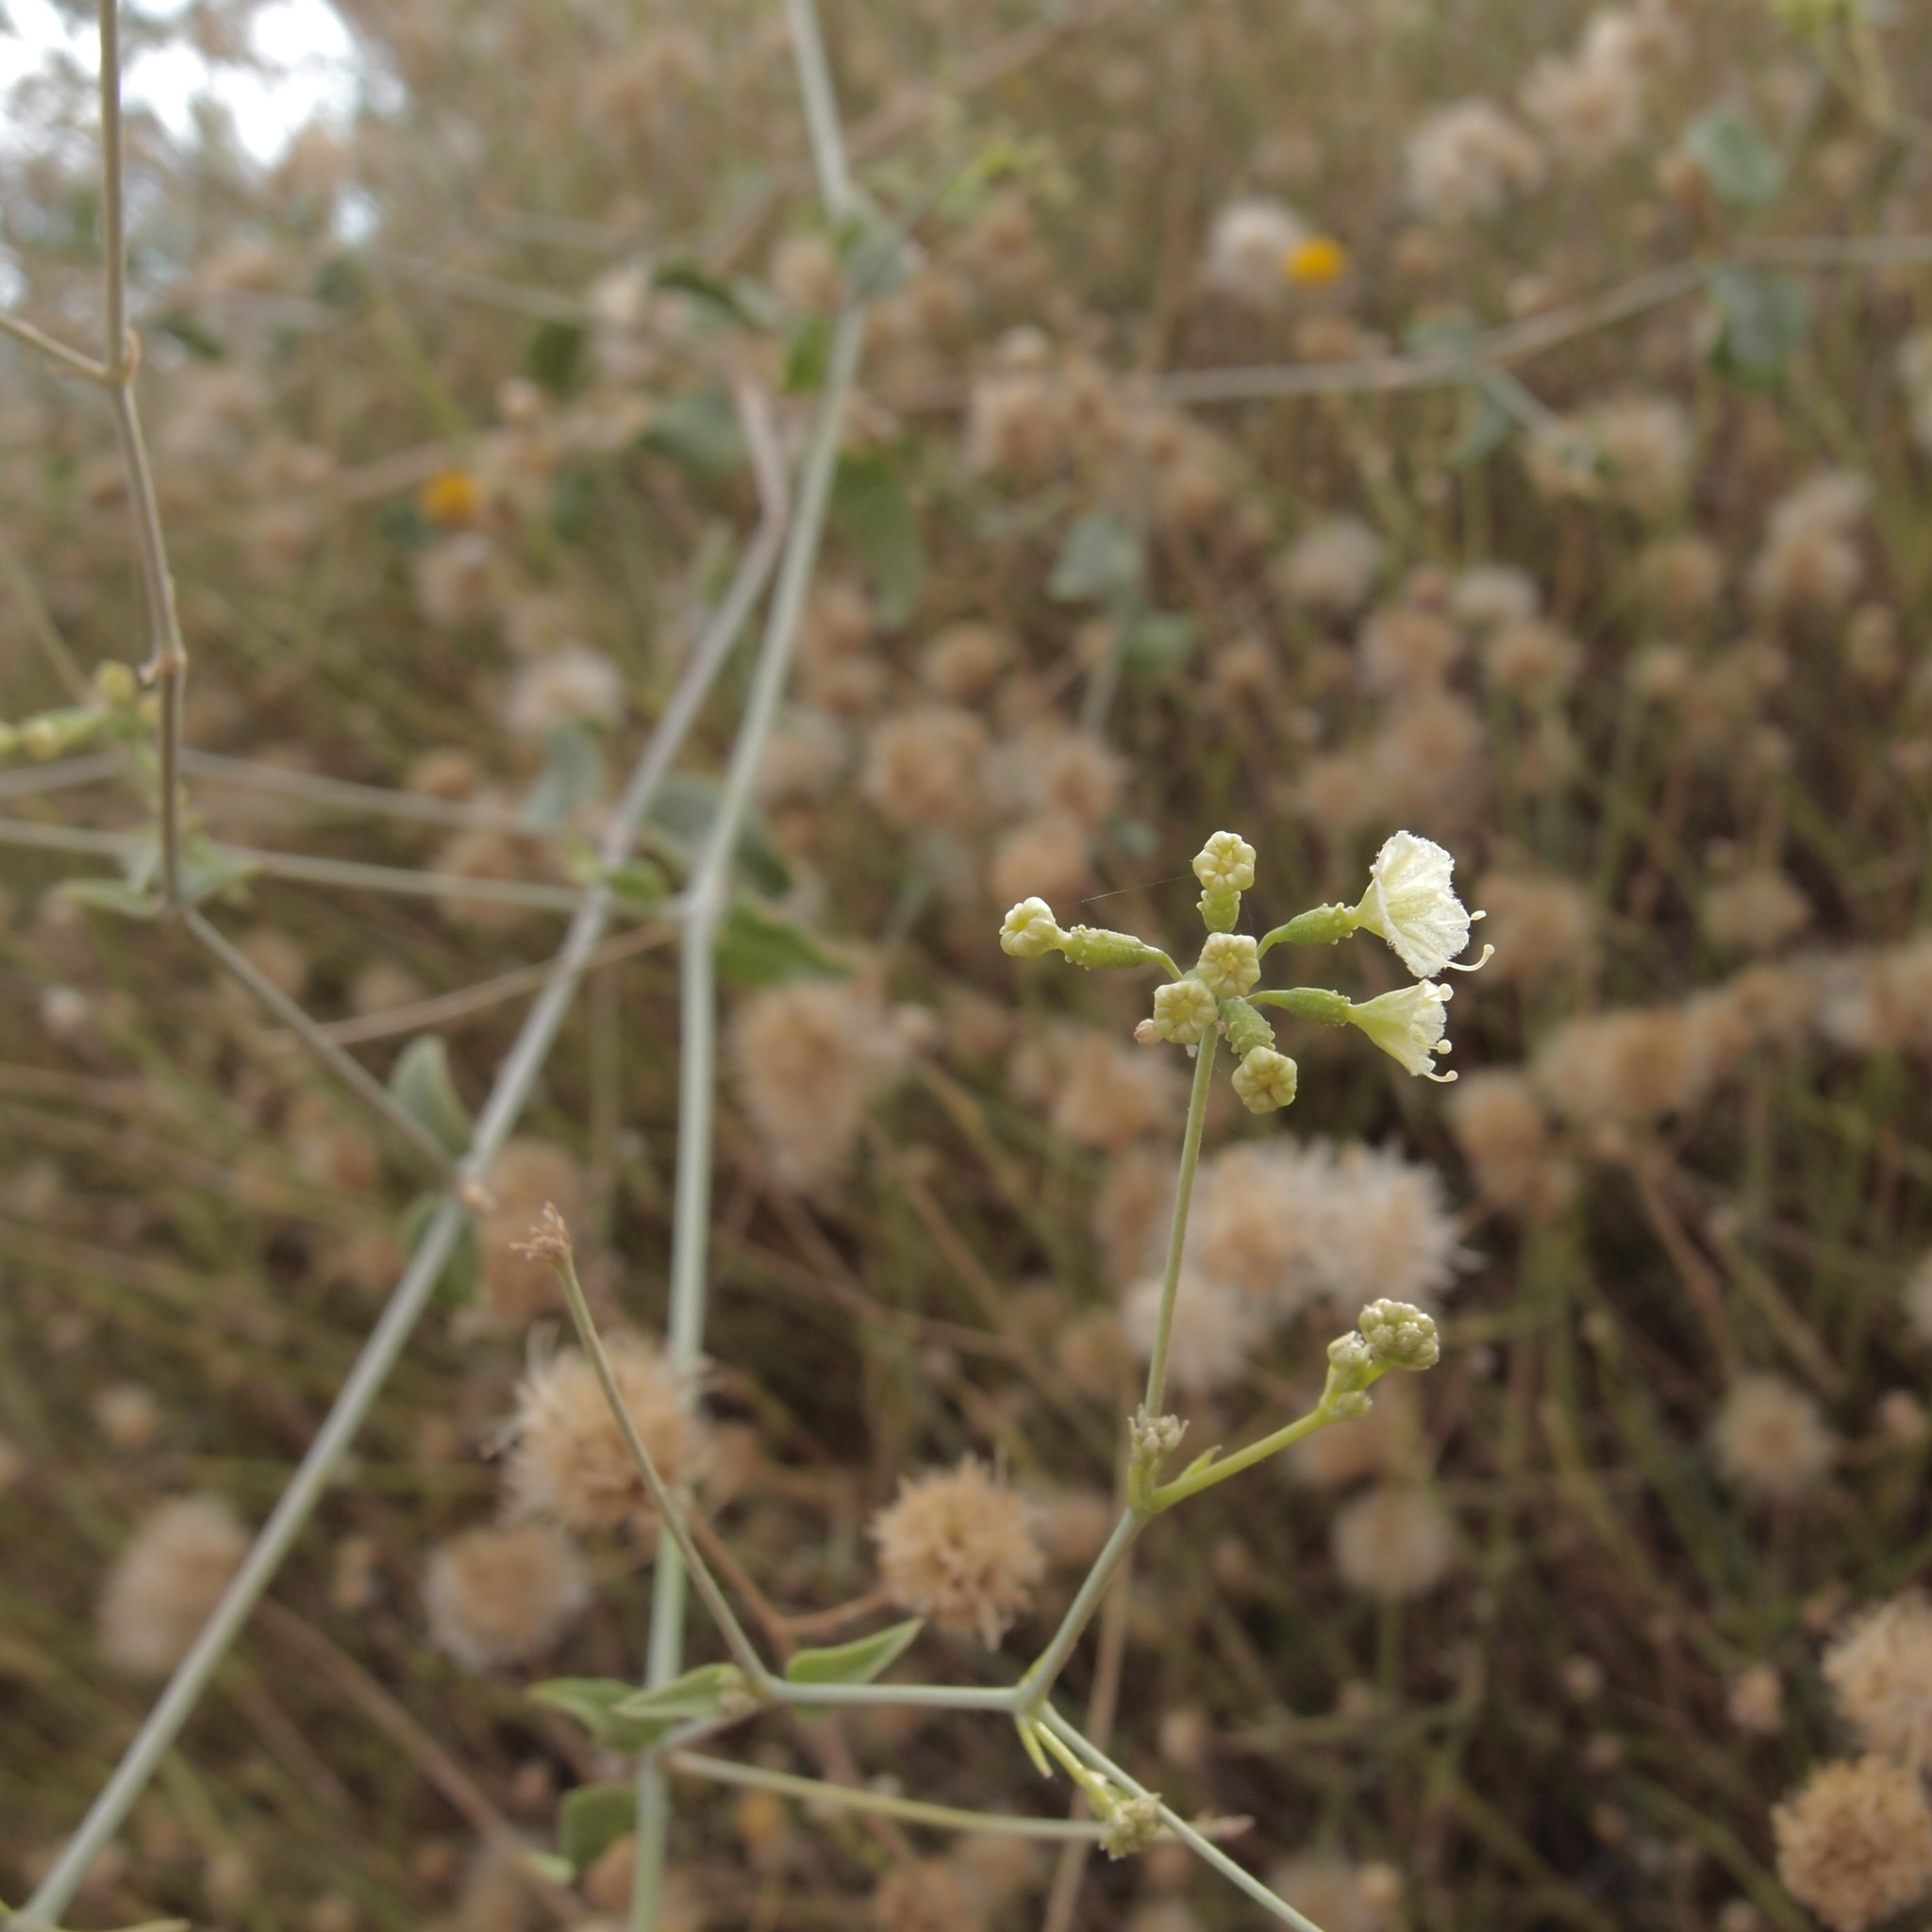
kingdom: Plantae
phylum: Tracheophyta
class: Magnoliopsida
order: Caryophyllales
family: Nyctaginaceae
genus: Commicarpus
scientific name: Commicarpus scandens
